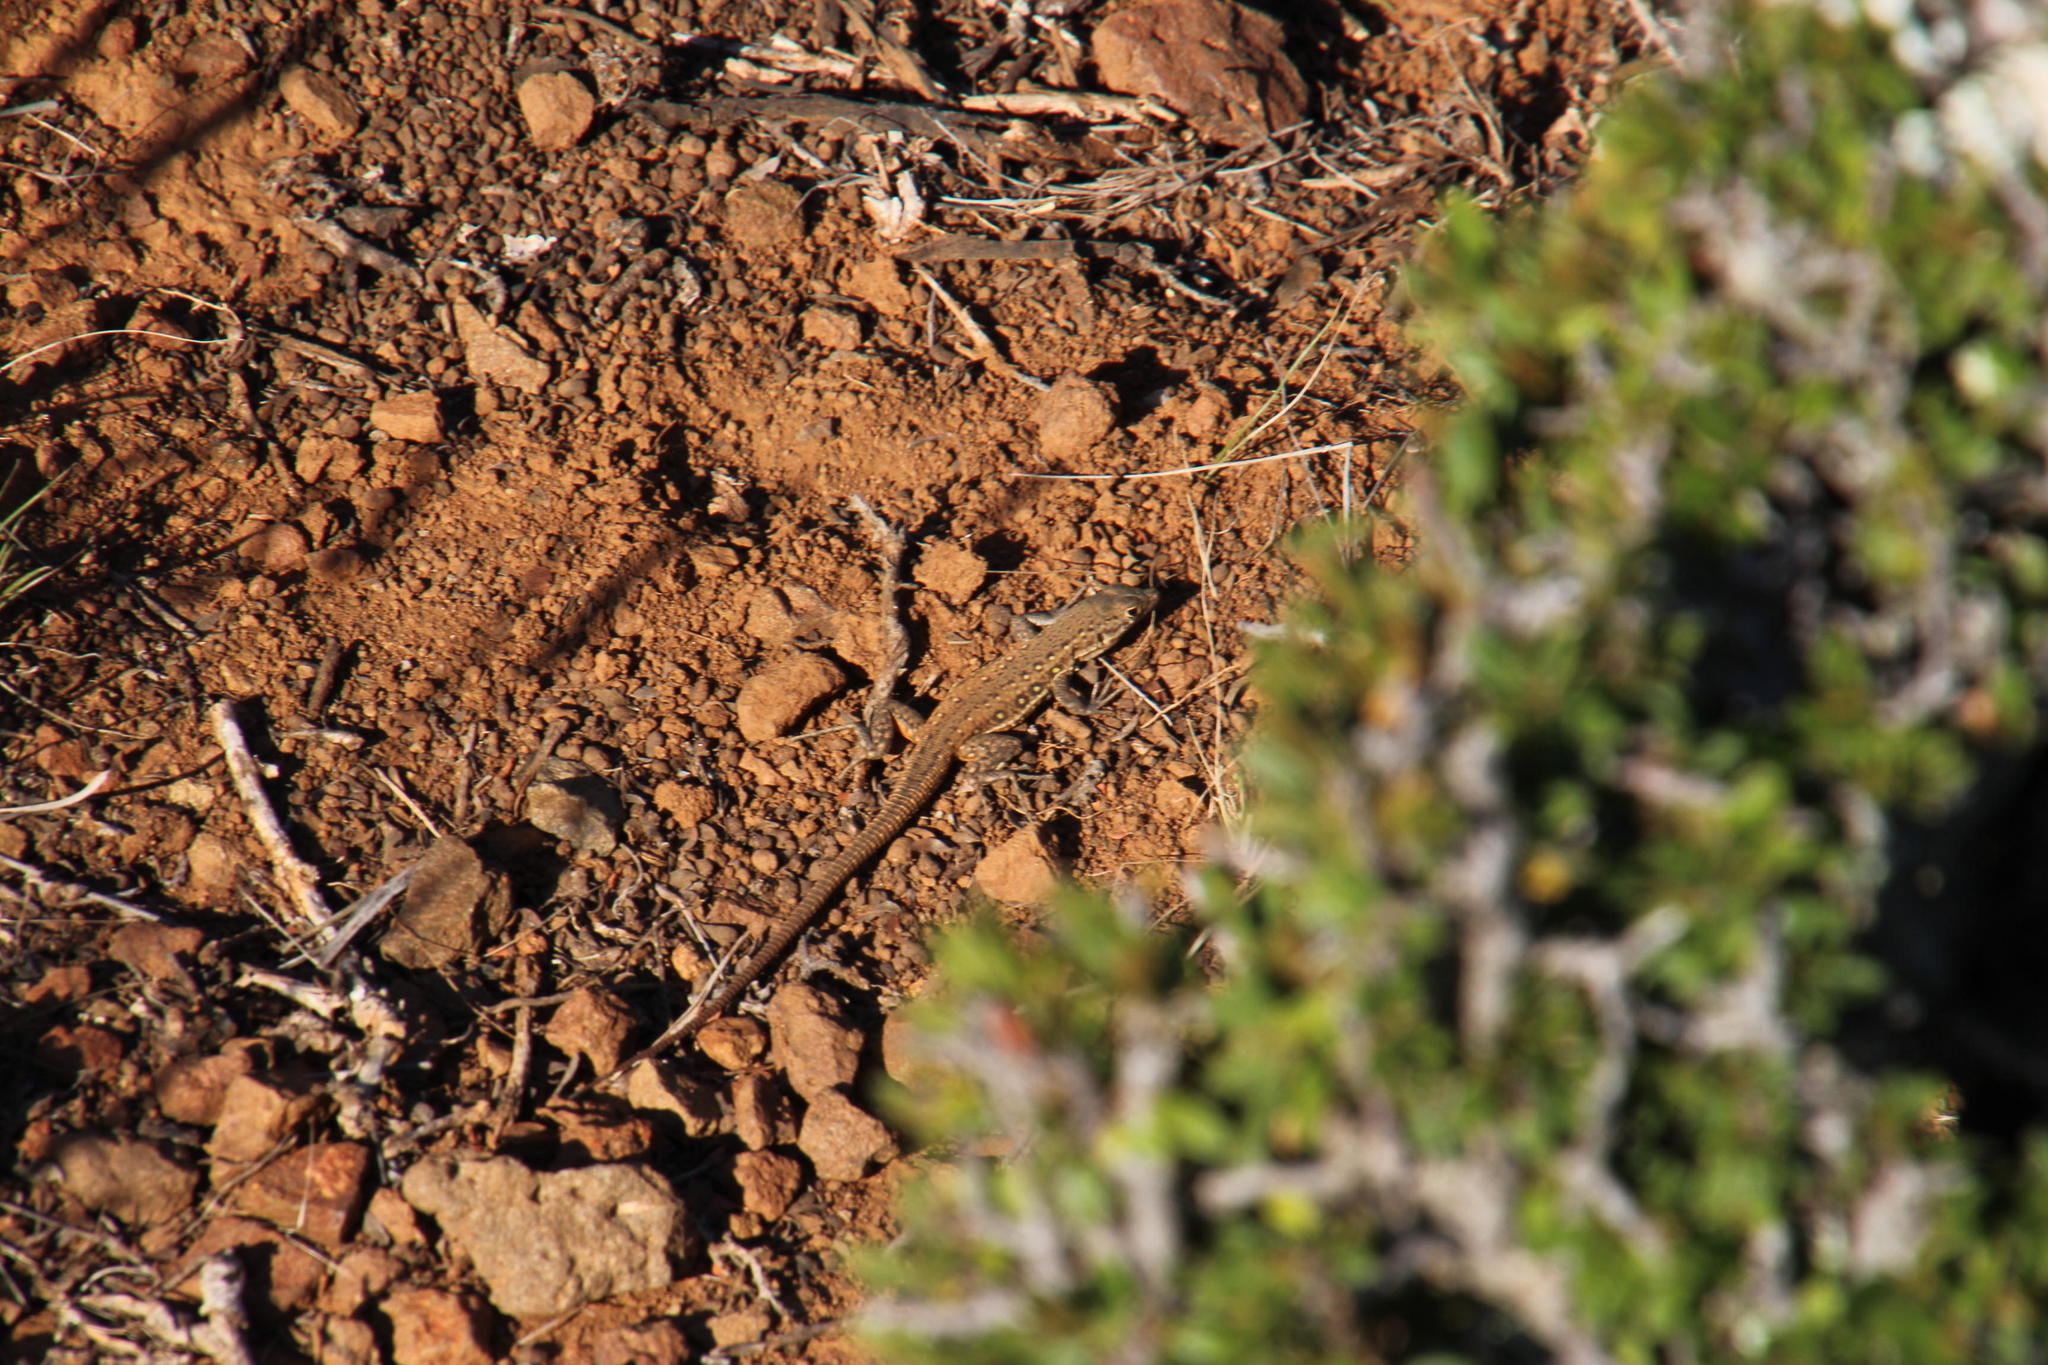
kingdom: Animalia
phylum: Chordata
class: Squamata
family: Lacertidae
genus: Pedioplanis
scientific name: Pedioplanis lineoocellata
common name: Spotted sand lizard
